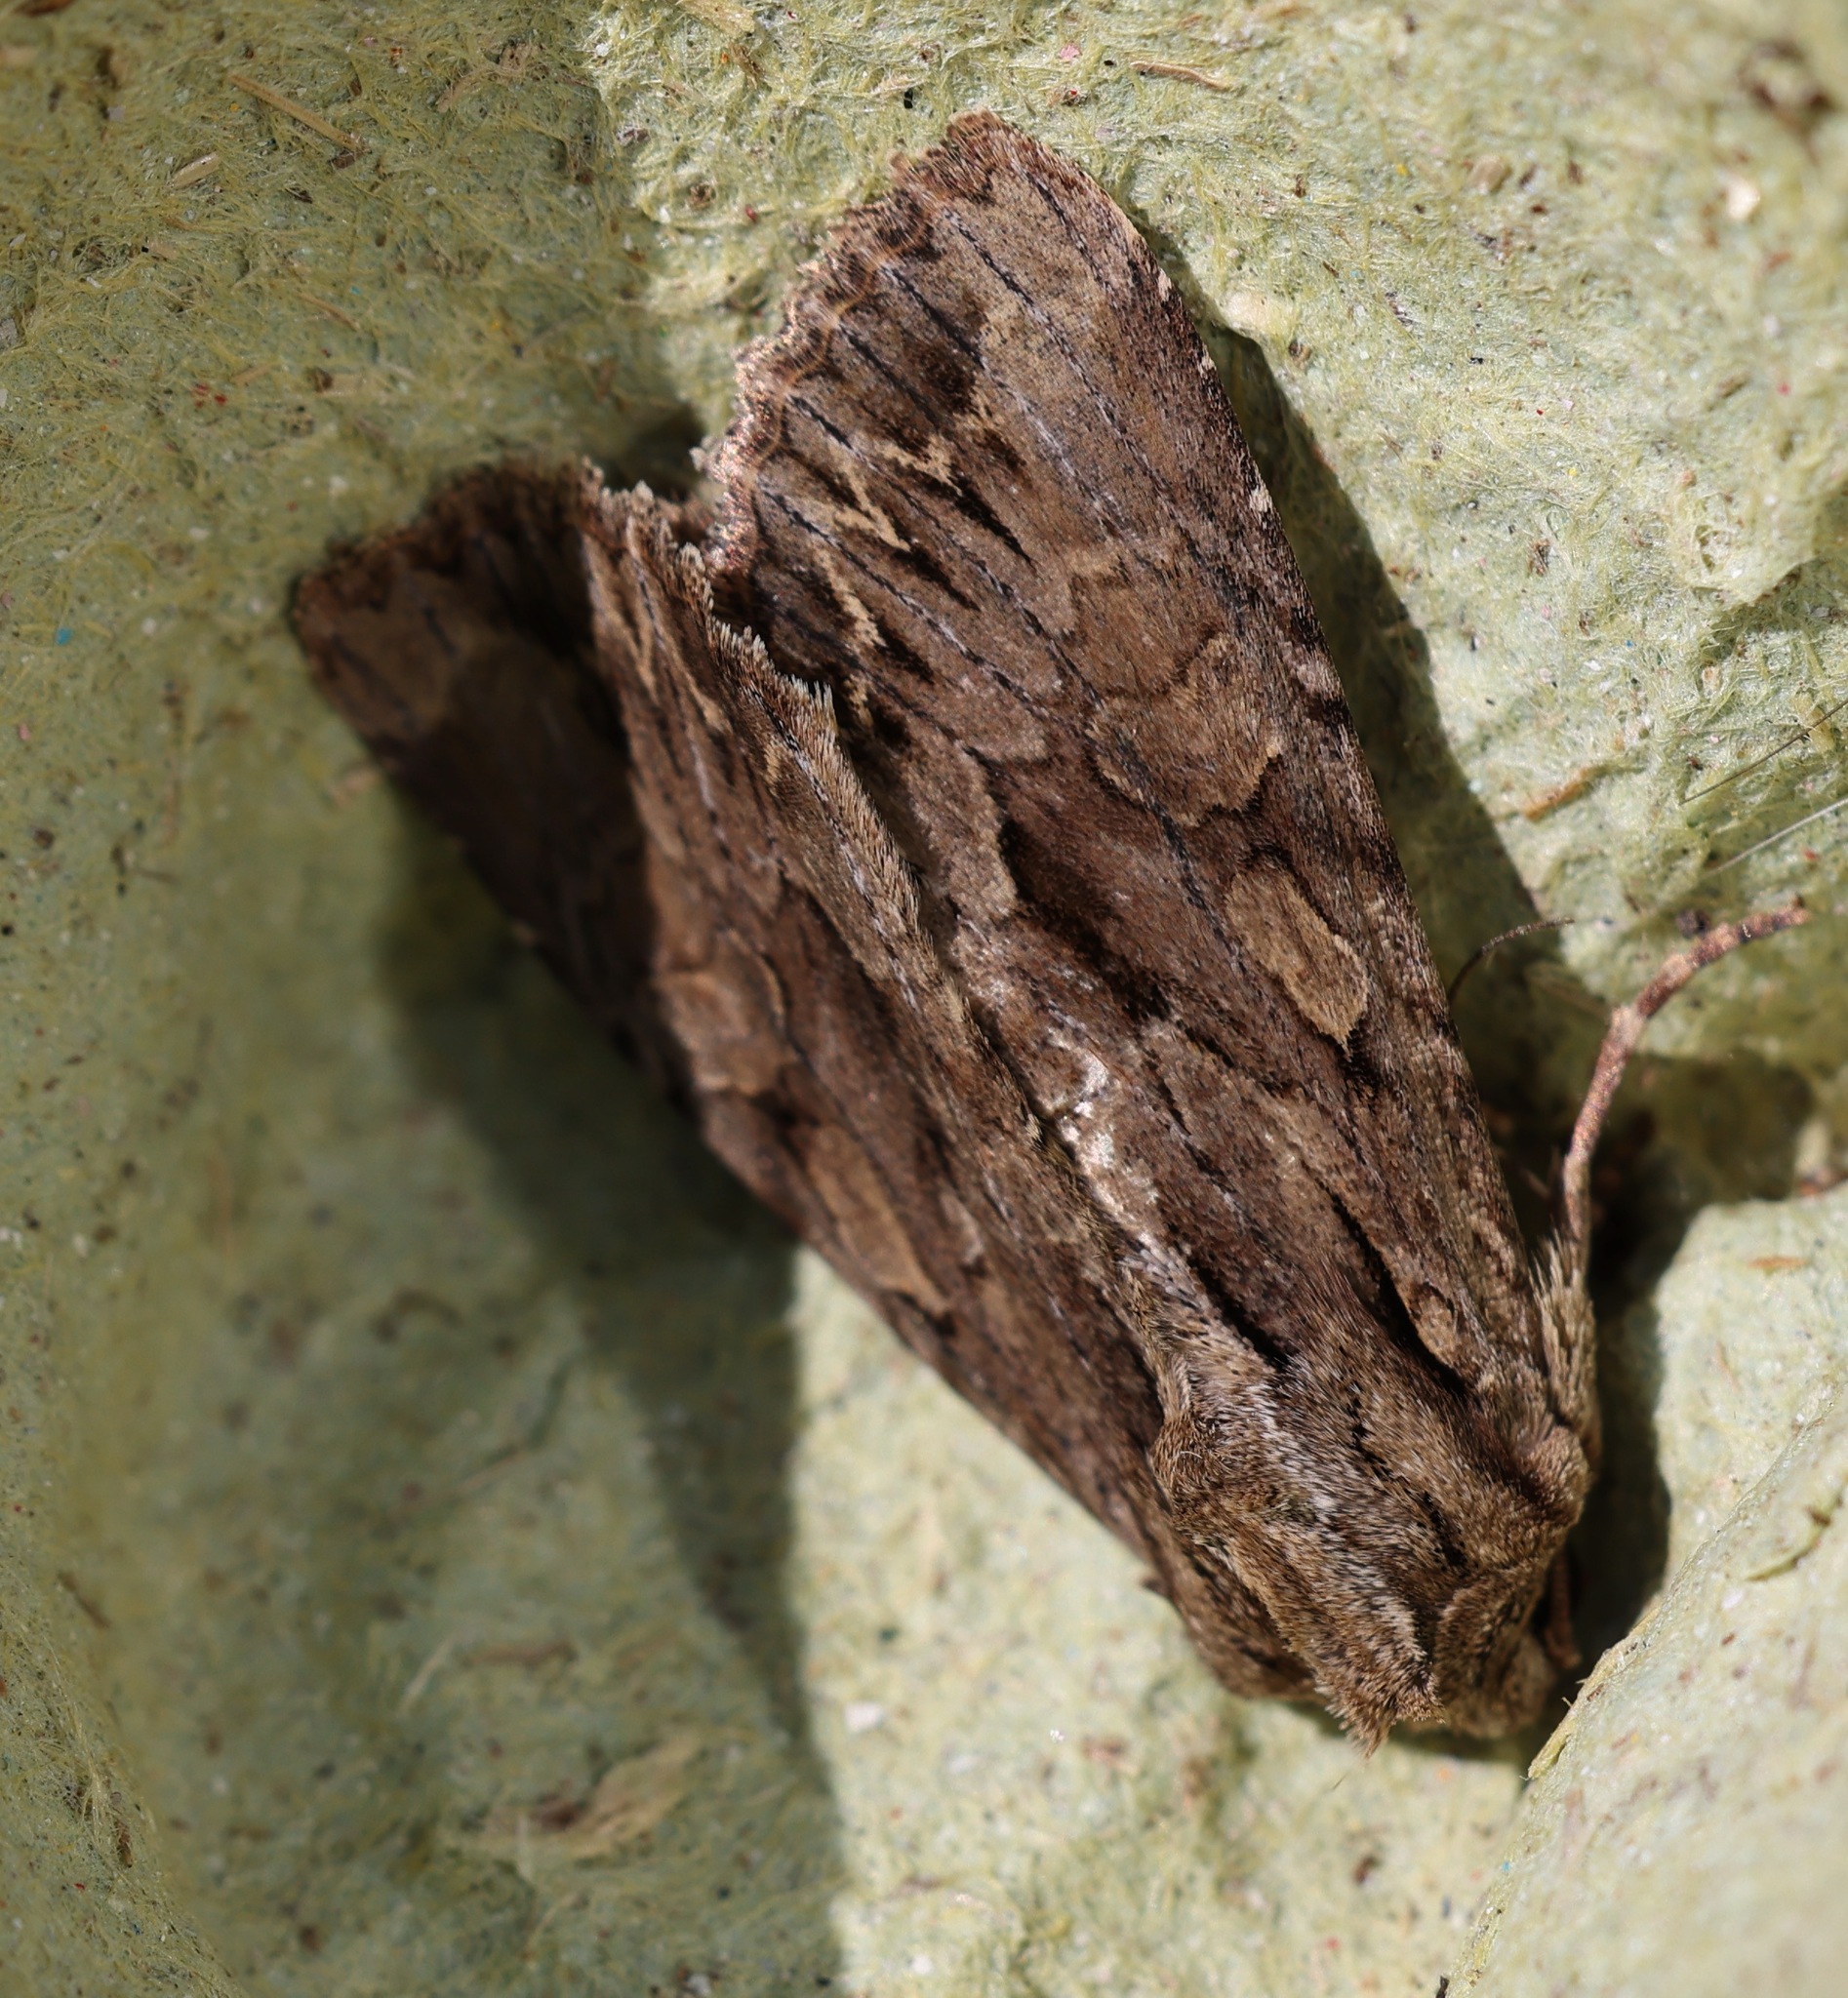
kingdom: Animalia
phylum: Arthropoda
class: Insecta
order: Lepidoptera
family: Noctuidae
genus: Apamea
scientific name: Apamea monoglypha
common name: Dark arches
